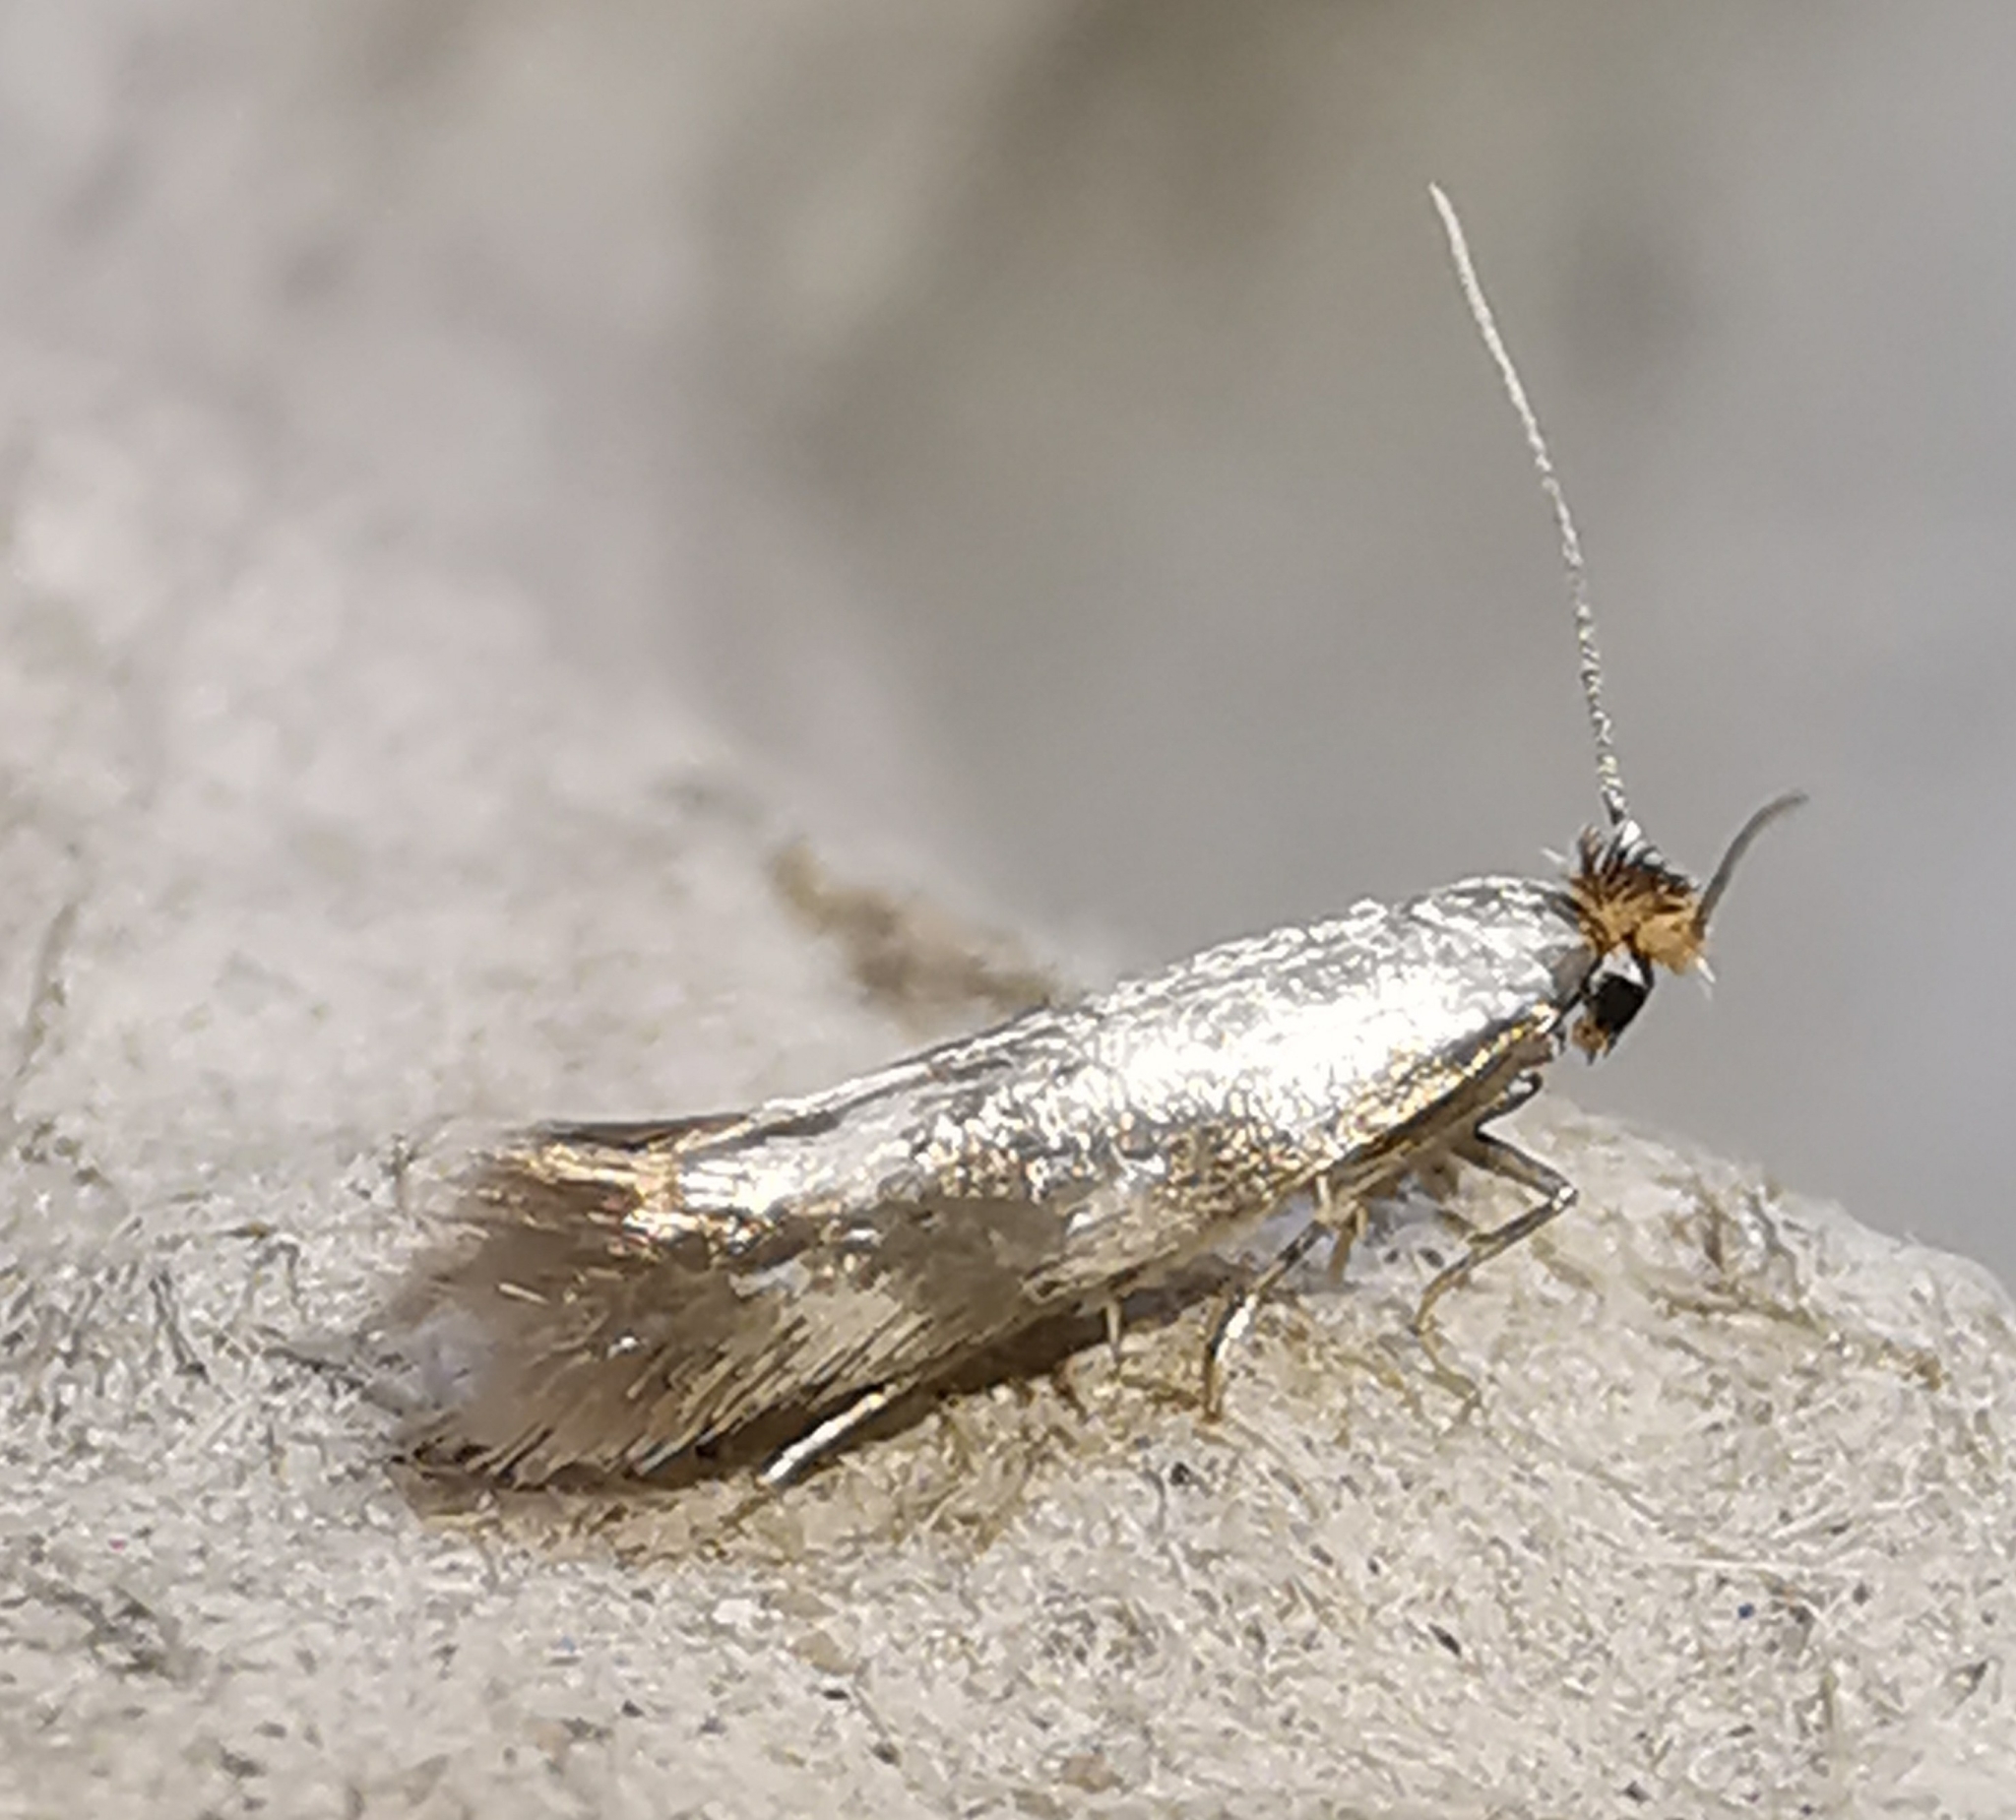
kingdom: Animalia
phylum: Arthropoda
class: Insecta
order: Lepidoptera
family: Bucculatricidae
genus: Bucculatrix
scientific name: Bucculatrix nigricomella
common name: Daisy bent-wing
